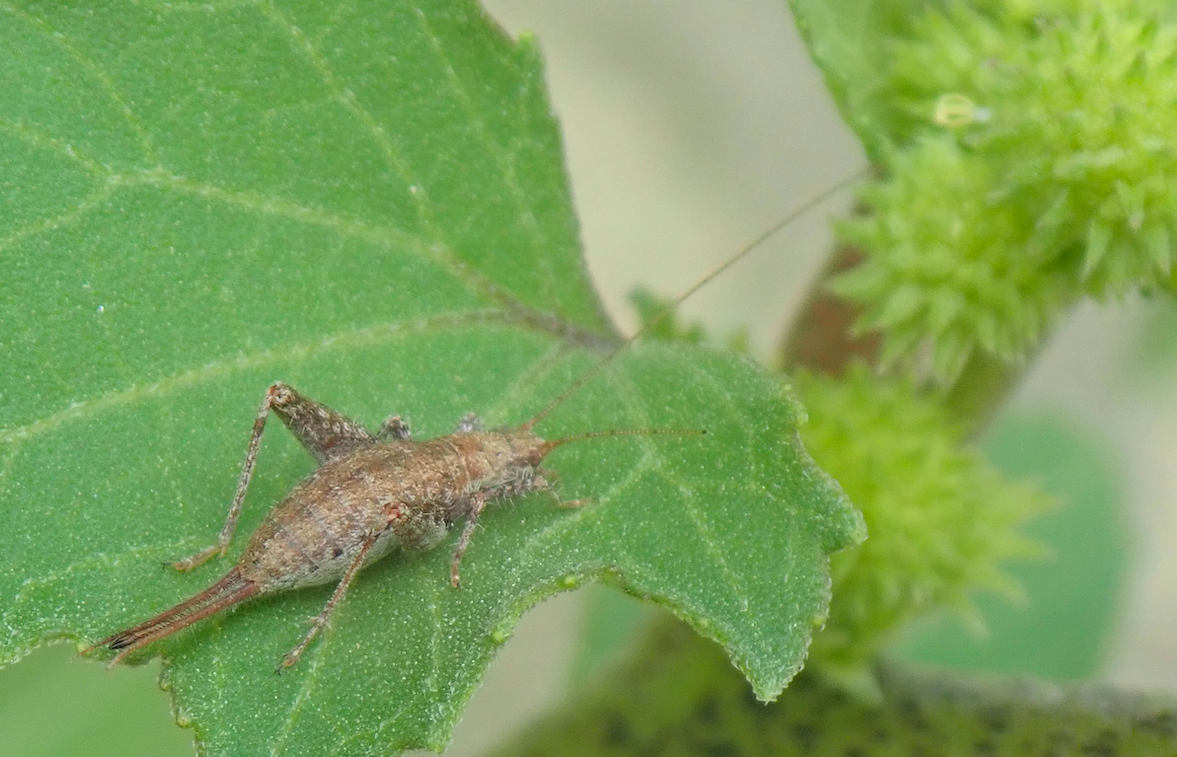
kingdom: Animalia
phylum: Arthropoda
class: Insecta
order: Orthoptera
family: Mogoplistidae
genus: Arachnocephalus
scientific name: Arachnocephalus vestitus
